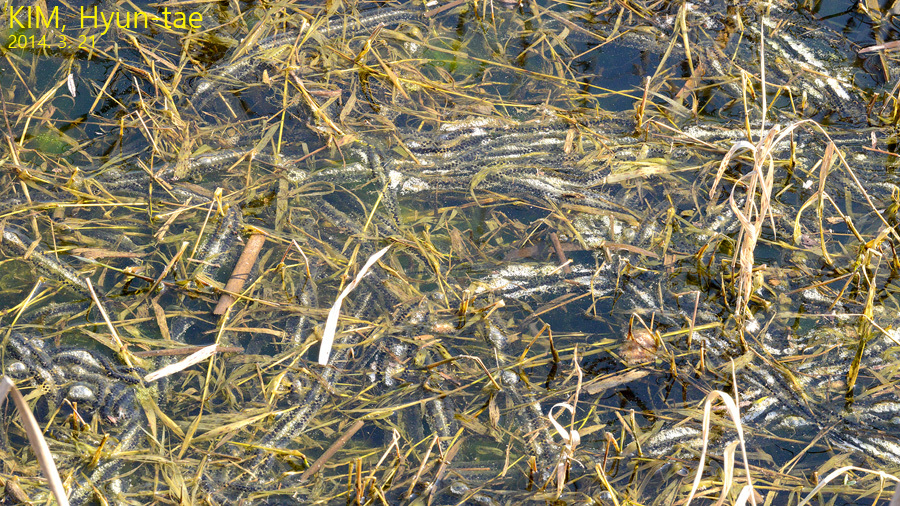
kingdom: Animalia
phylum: Chordata
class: Amphibia
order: Anura
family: Bufonidae
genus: Bufo
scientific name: Bufo gargarizans
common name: Asiatic toad
